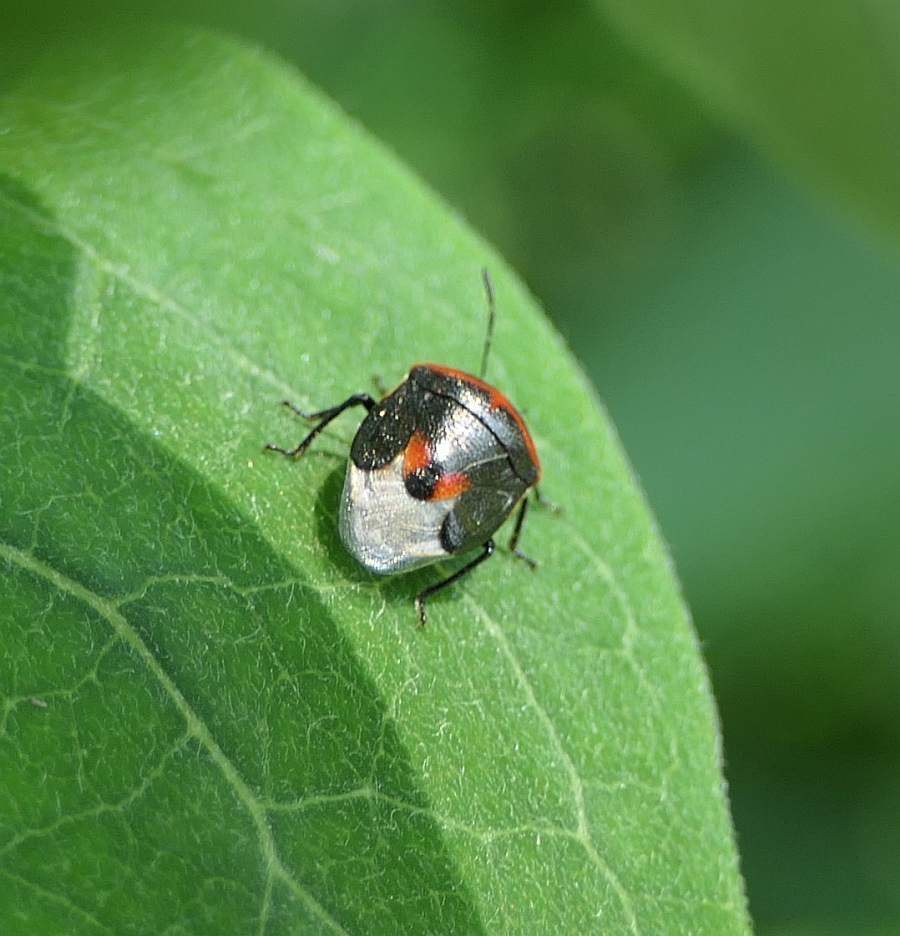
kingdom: Animalia
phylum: Arthropoda
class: Insecta
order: Hemiptera
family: Pentatomidae
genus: Cosmopepla
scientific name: Cosmopepla lintneriana
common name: Twice-stabbed stink bug
